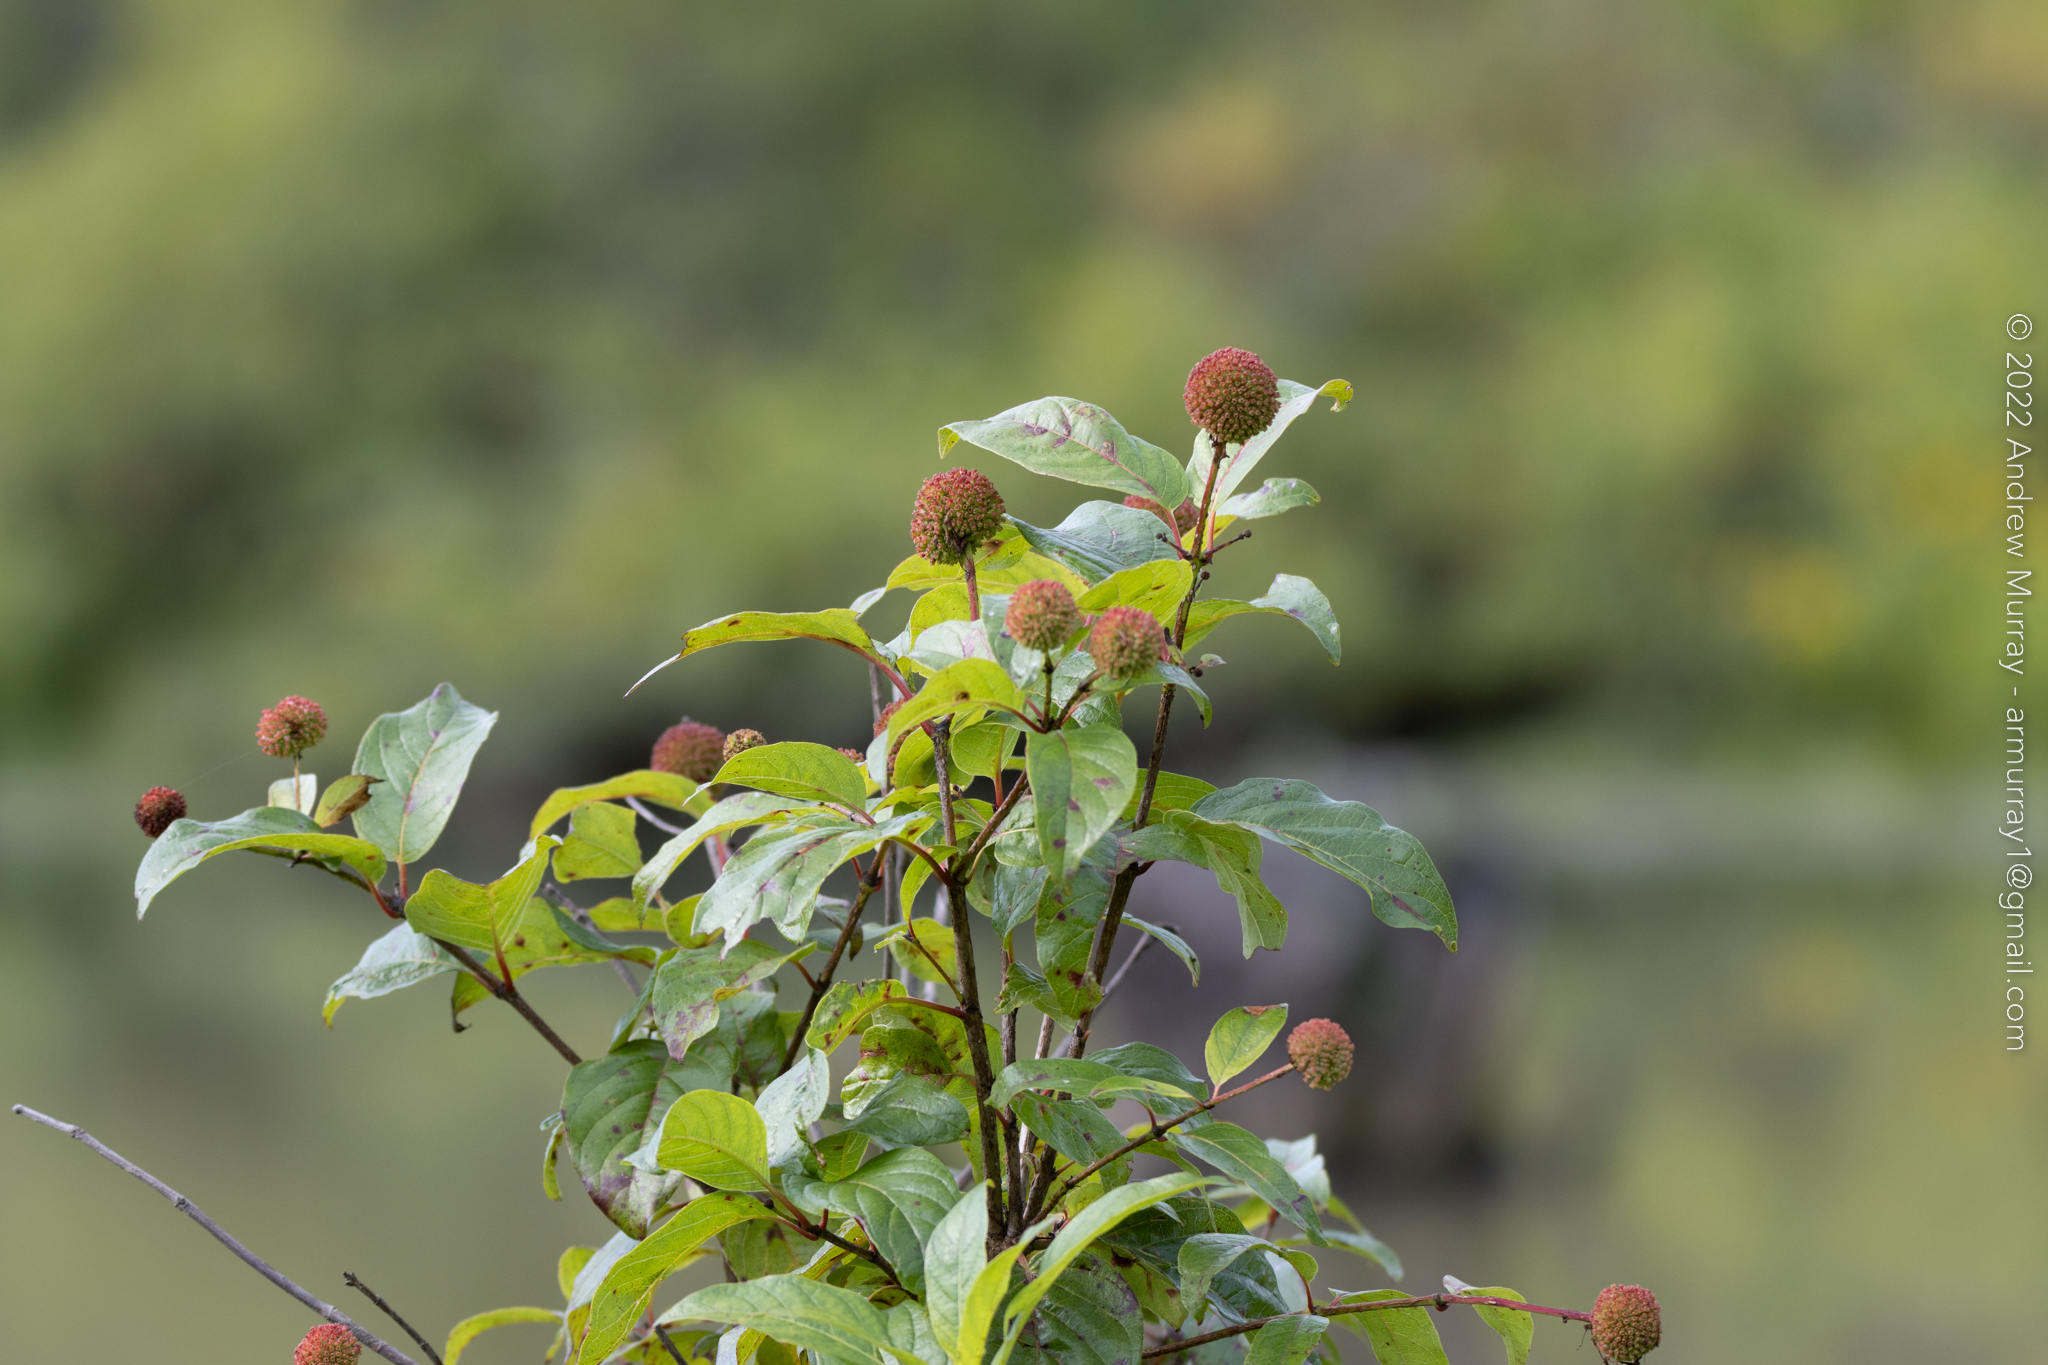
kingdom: Plantae
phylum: Tracheophyta
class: Magnoliopsida
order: Gentianales
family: Rubiaceae
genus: Cephalanthus
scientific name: Cephalanthus occidentalis
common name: Button-willow
